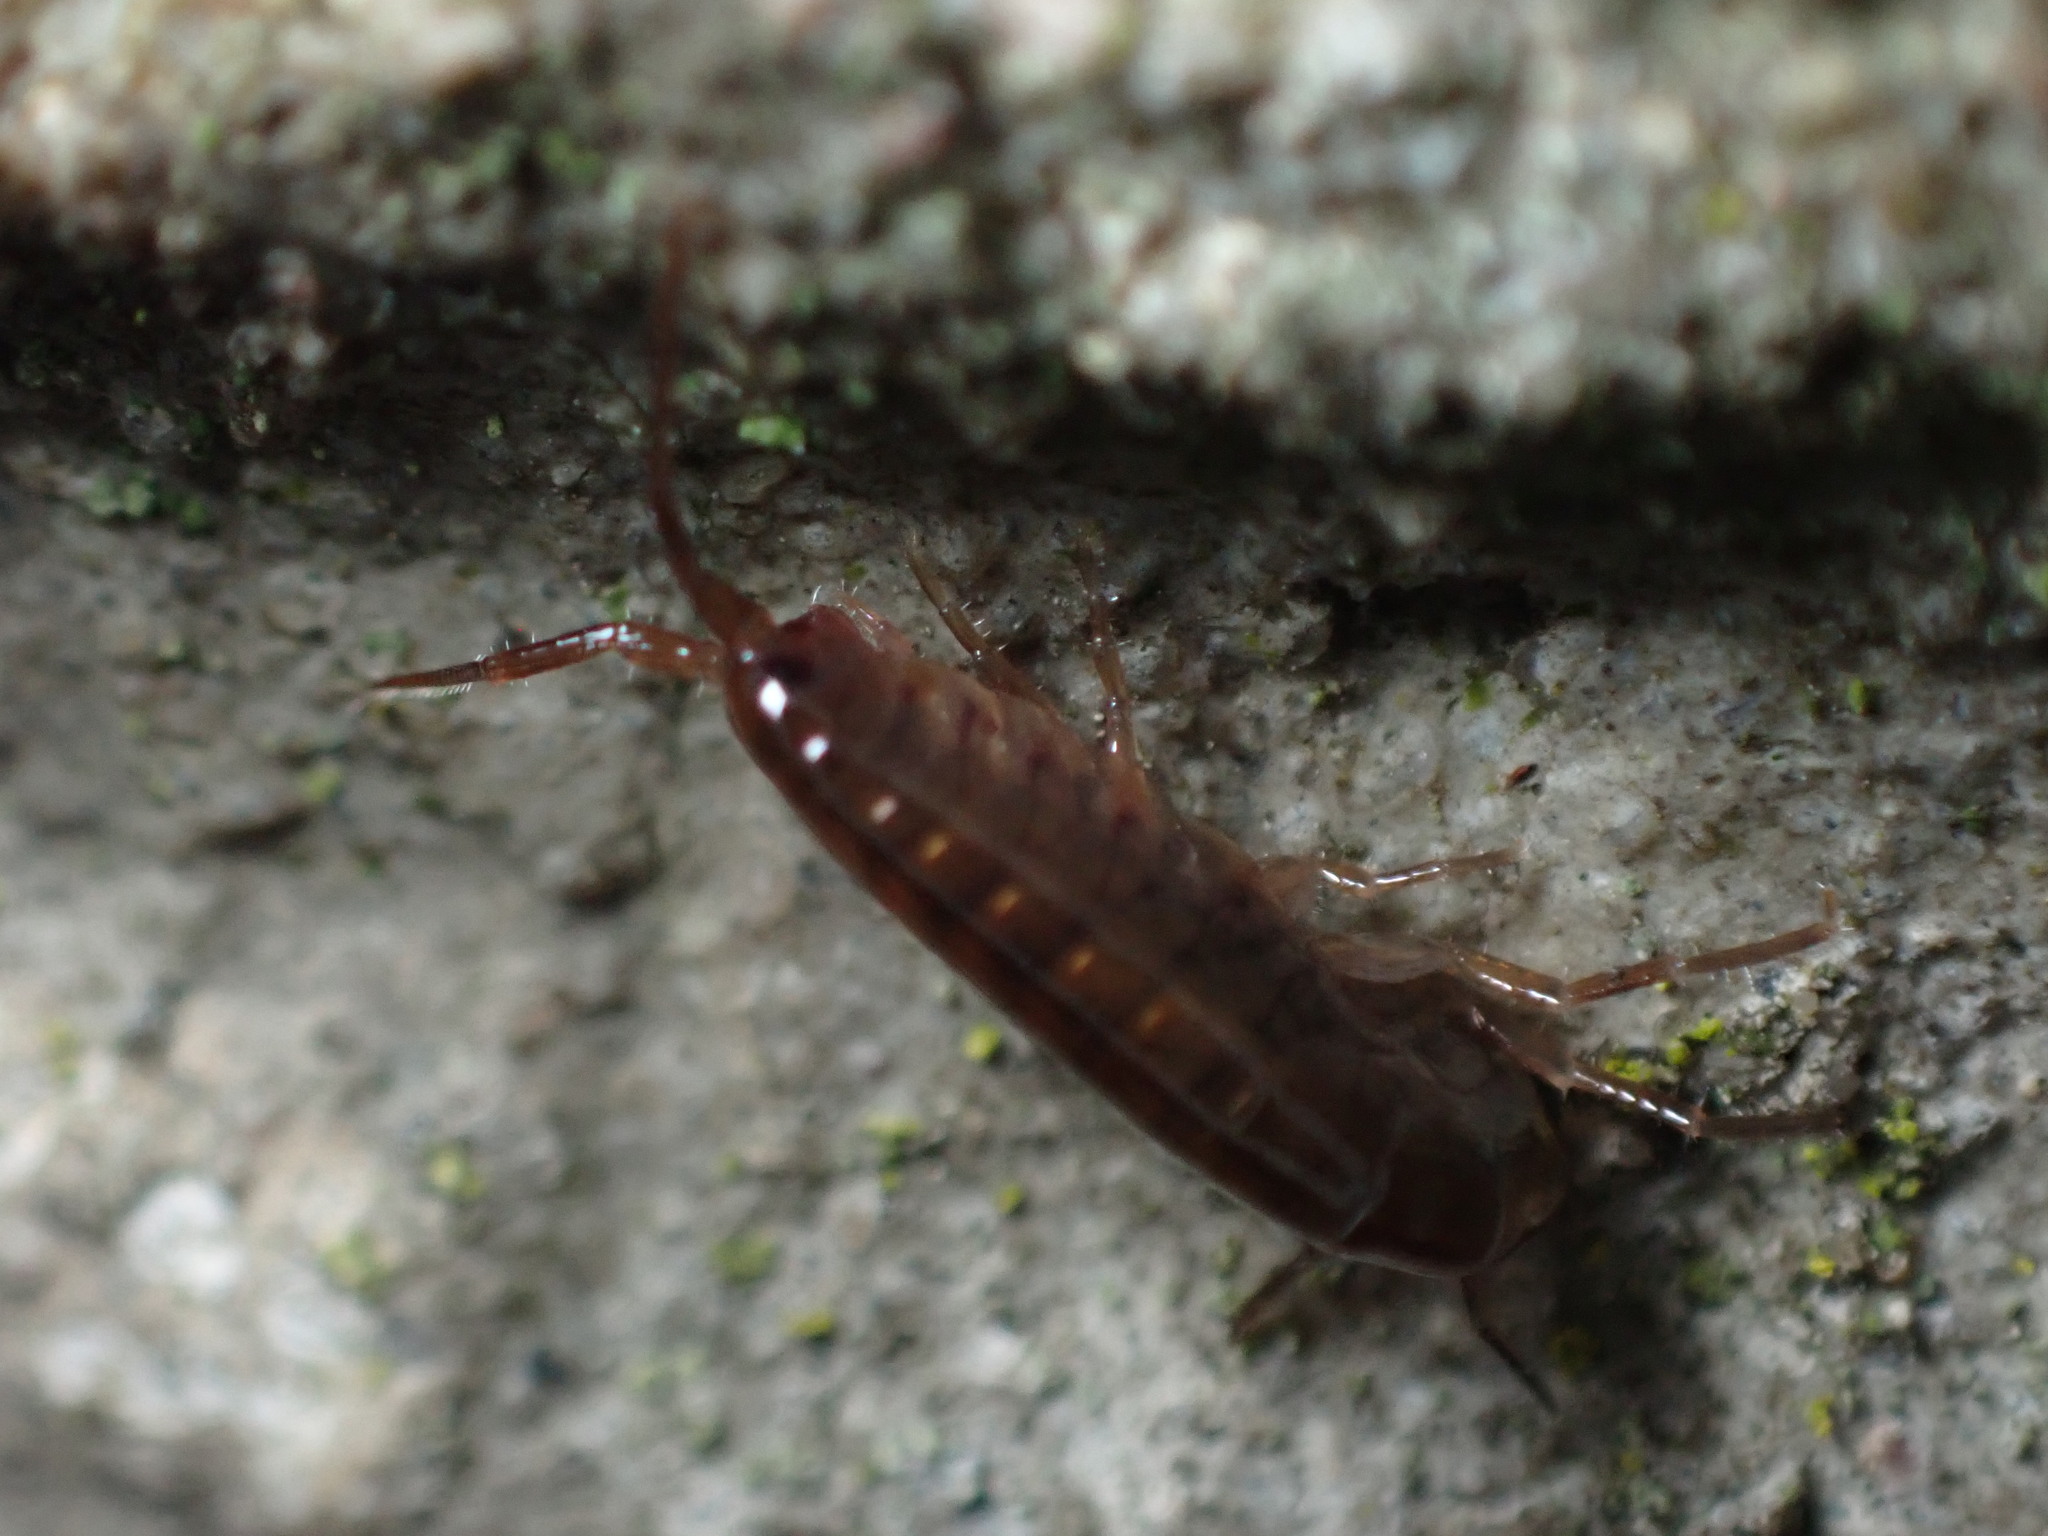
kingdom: Animalia
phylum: Arthropoda
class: Malacostraca
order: Amphipoda
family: Arcitalitridae
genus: Arcitalitrus
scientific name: Arcitalitrus dorrieni
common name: Landhopper
